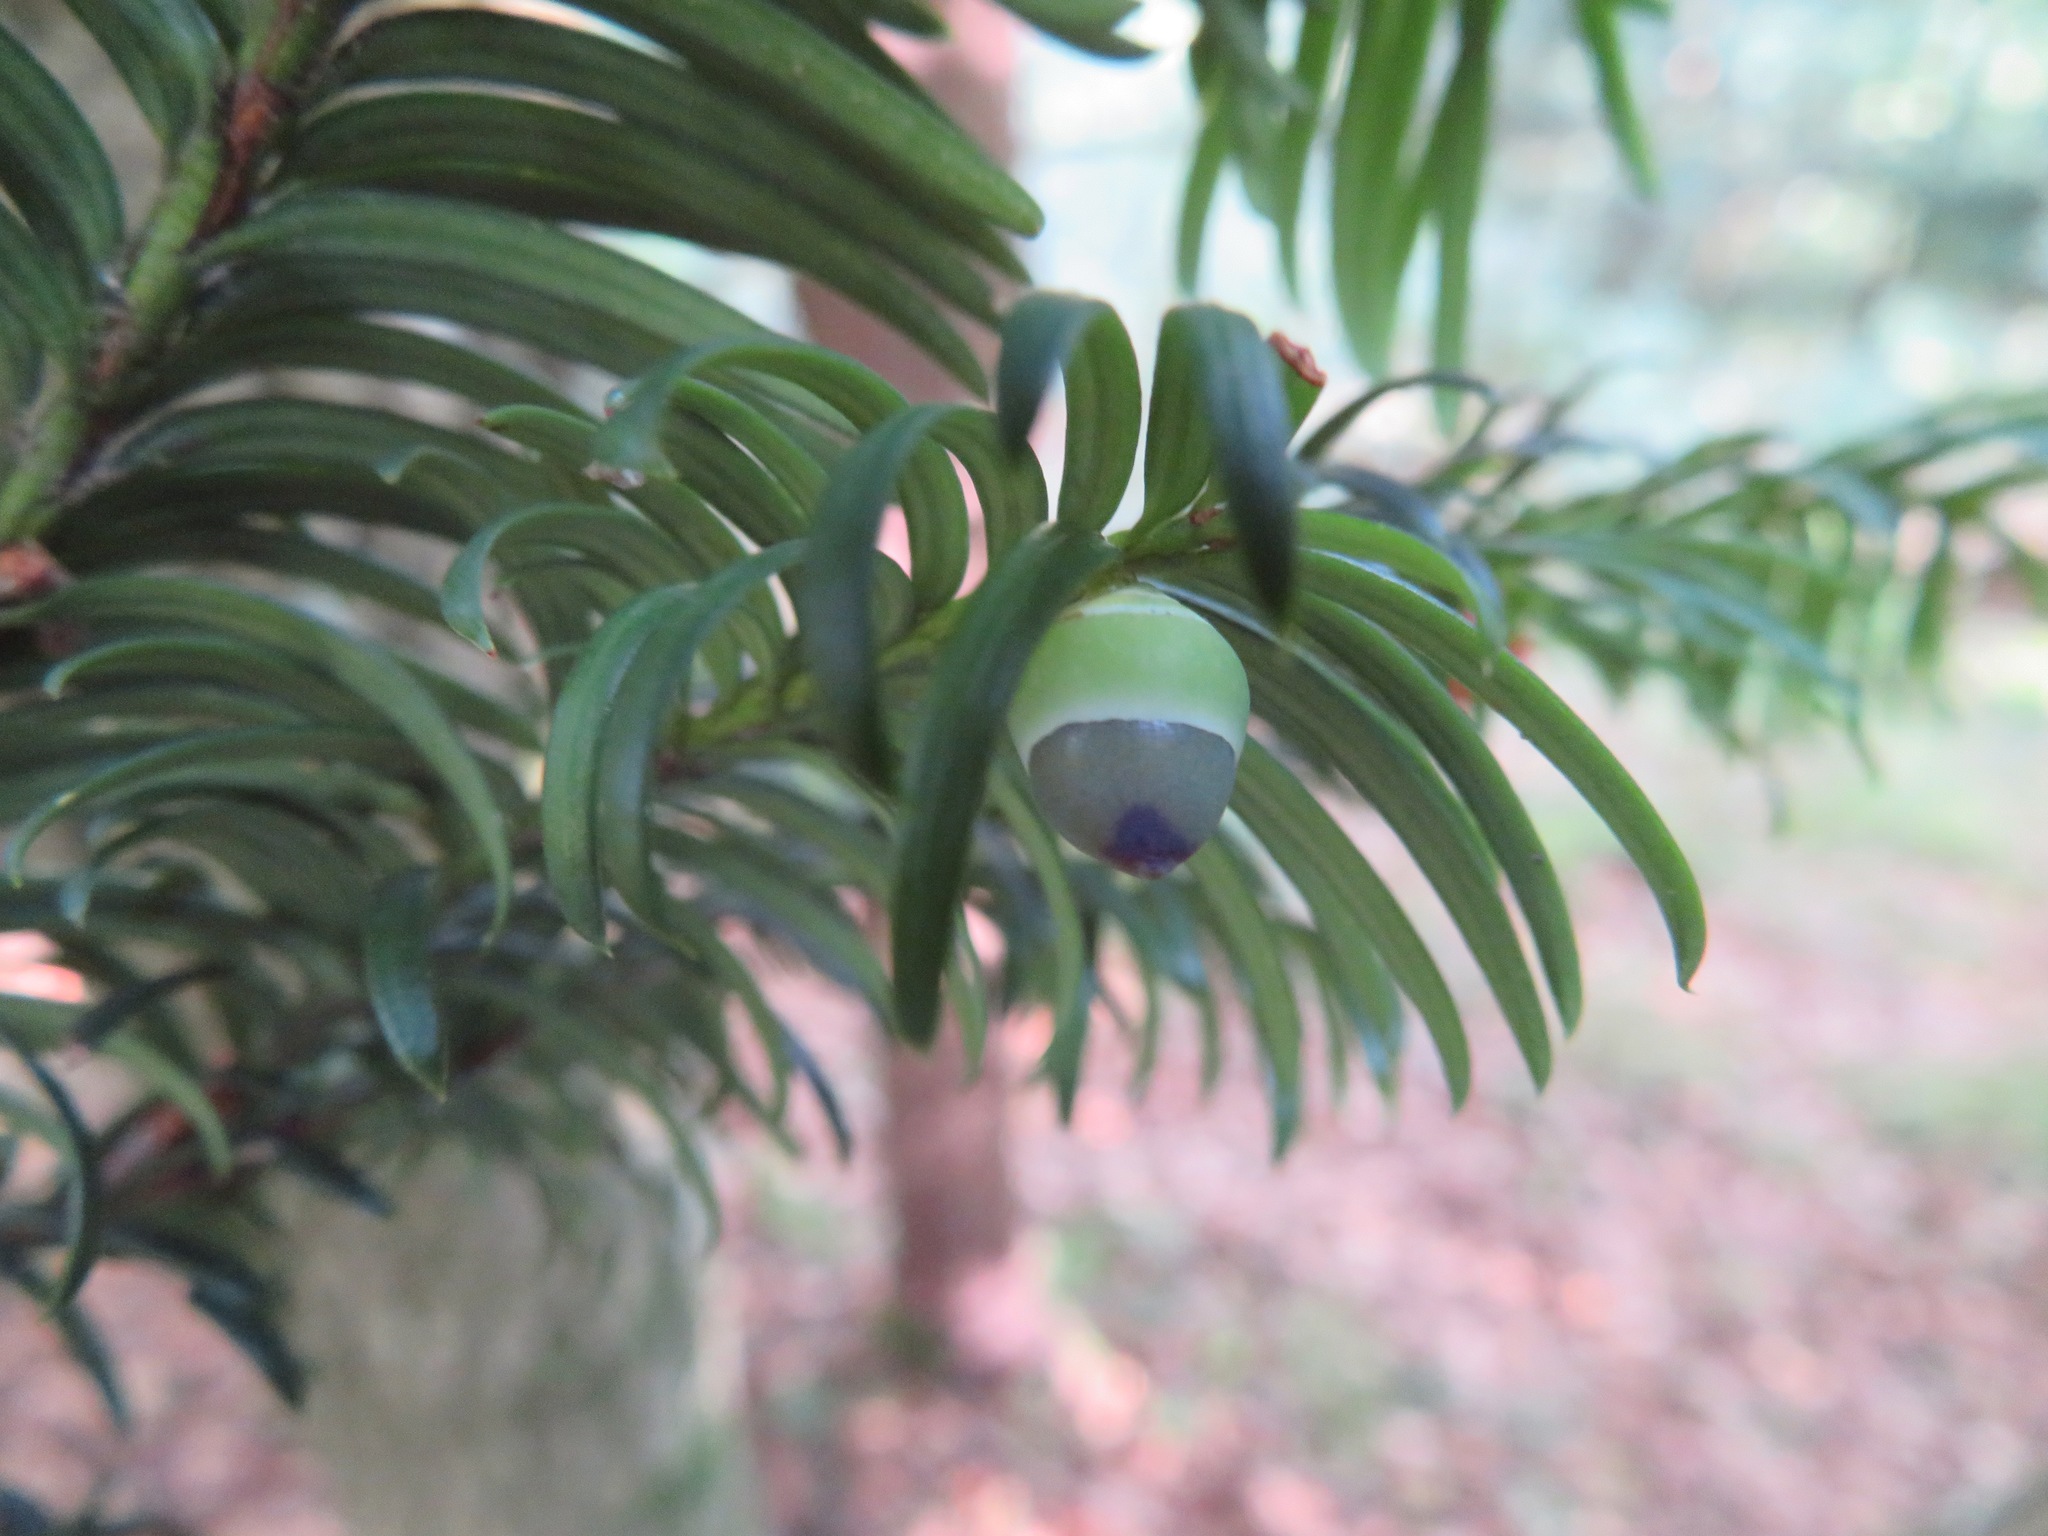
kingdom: Plantae
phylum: Tracheophyta
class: Pinopsida
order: Pinales
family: Taxaceae
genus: Taxus
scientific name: Taxus baccata
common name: Yew
